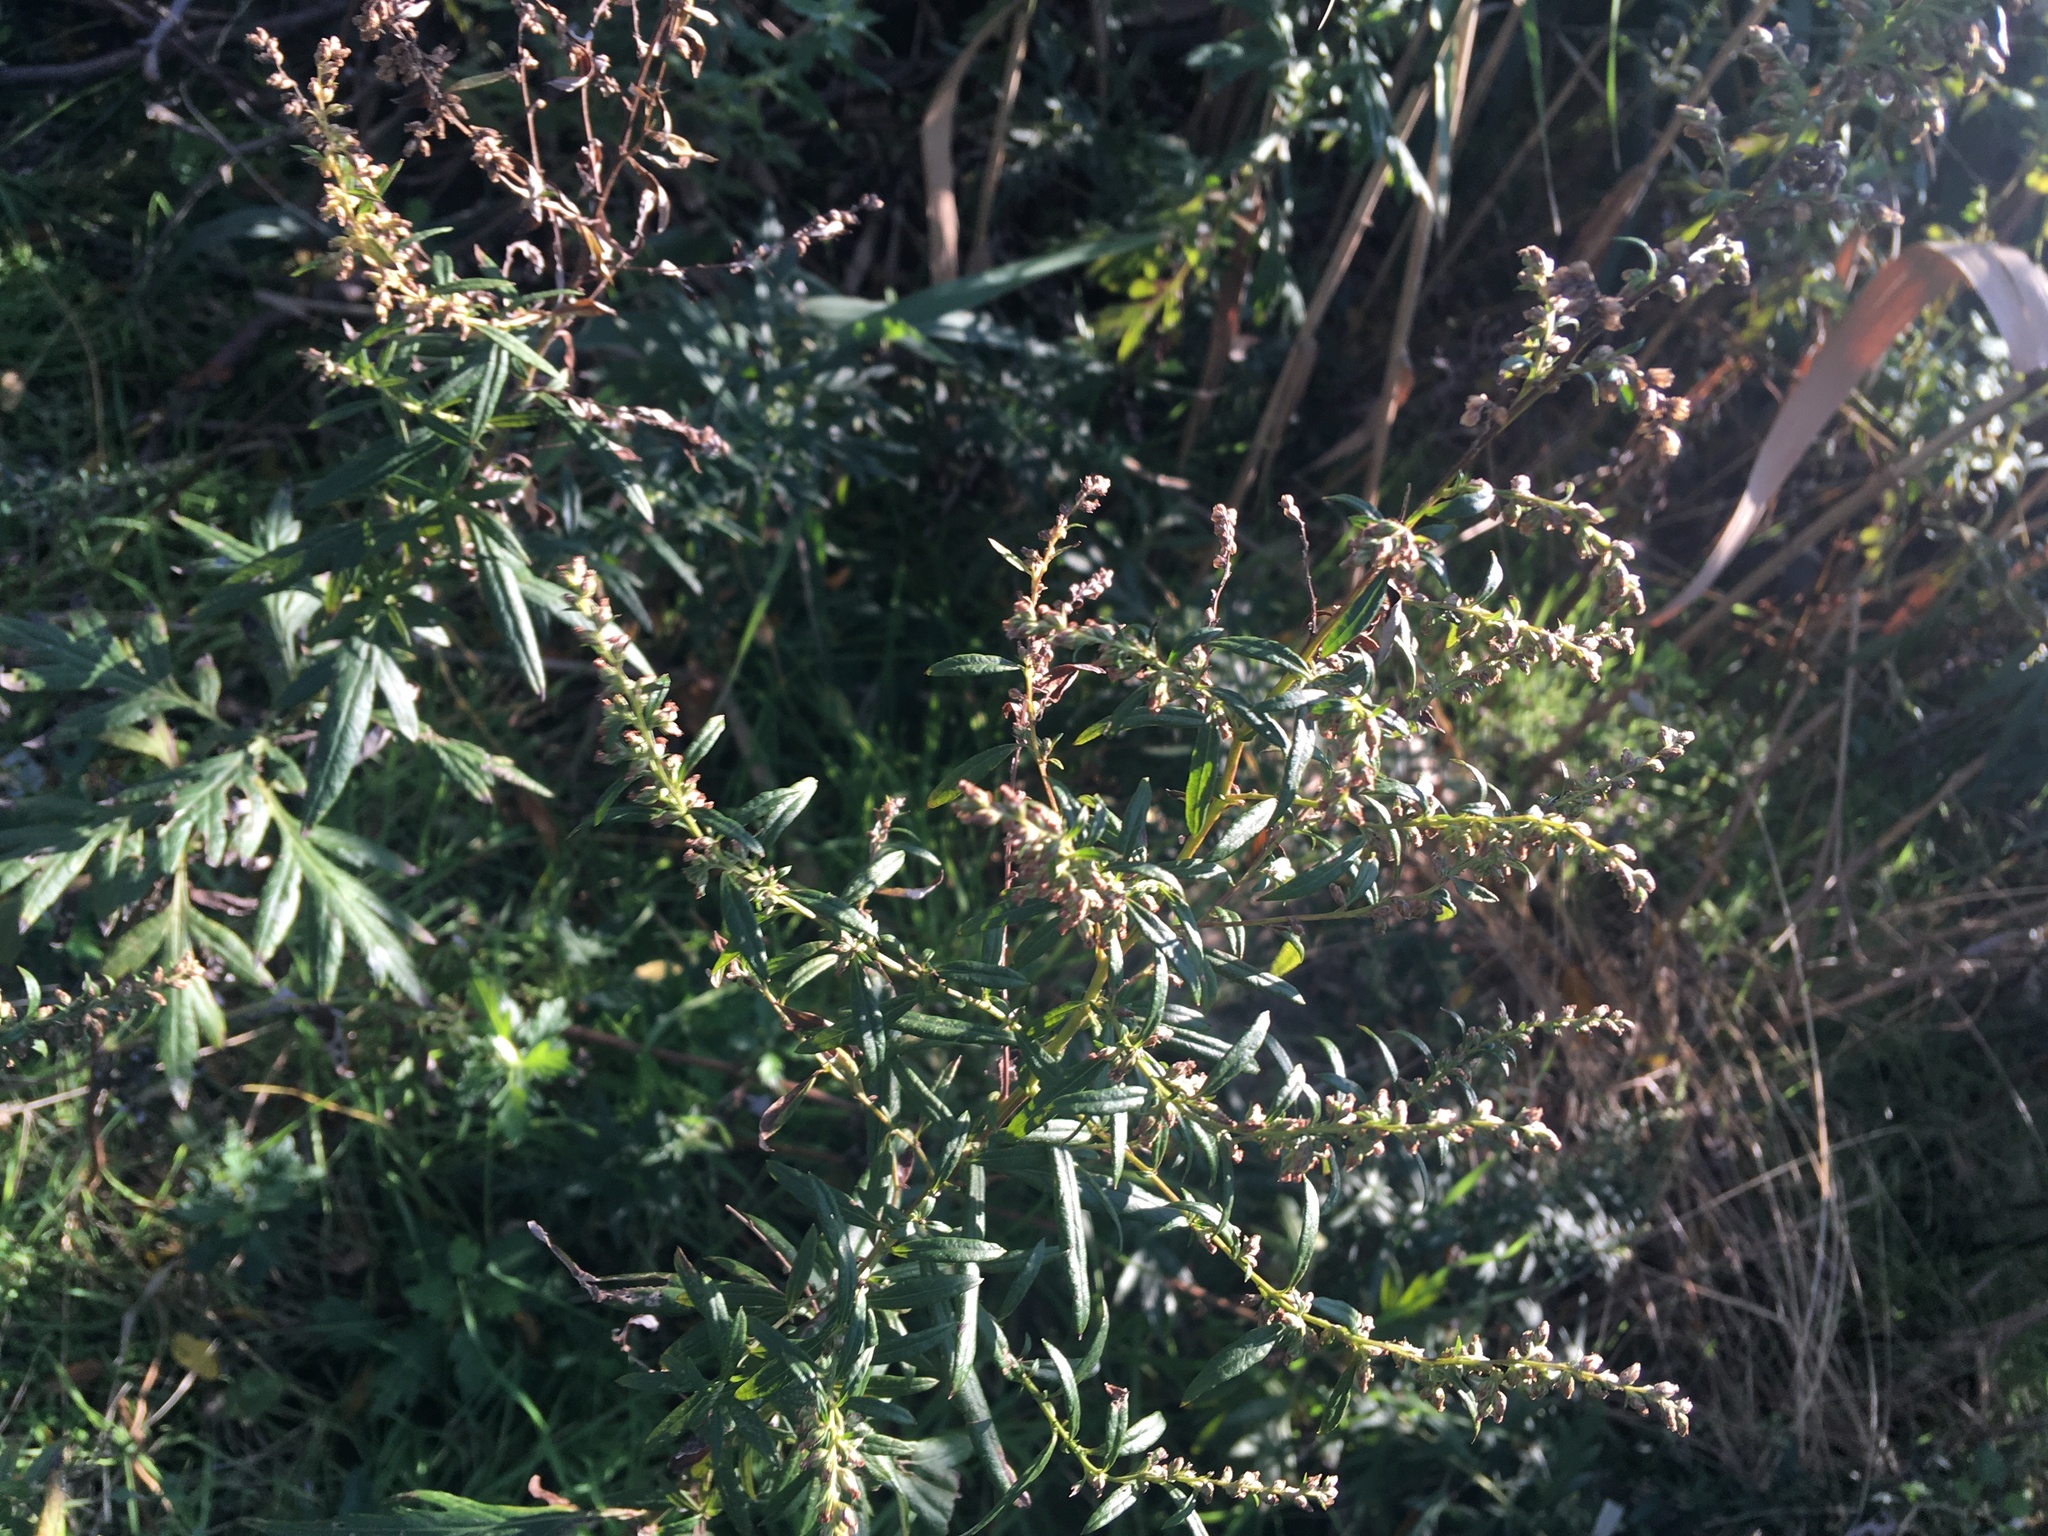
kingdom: Plantae
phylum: Tracheophyta
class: Magnoliopsida
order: Asterales
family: Asteraceae
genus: Artemisia
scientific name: Artemisia vulgaris
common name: Mugwort
